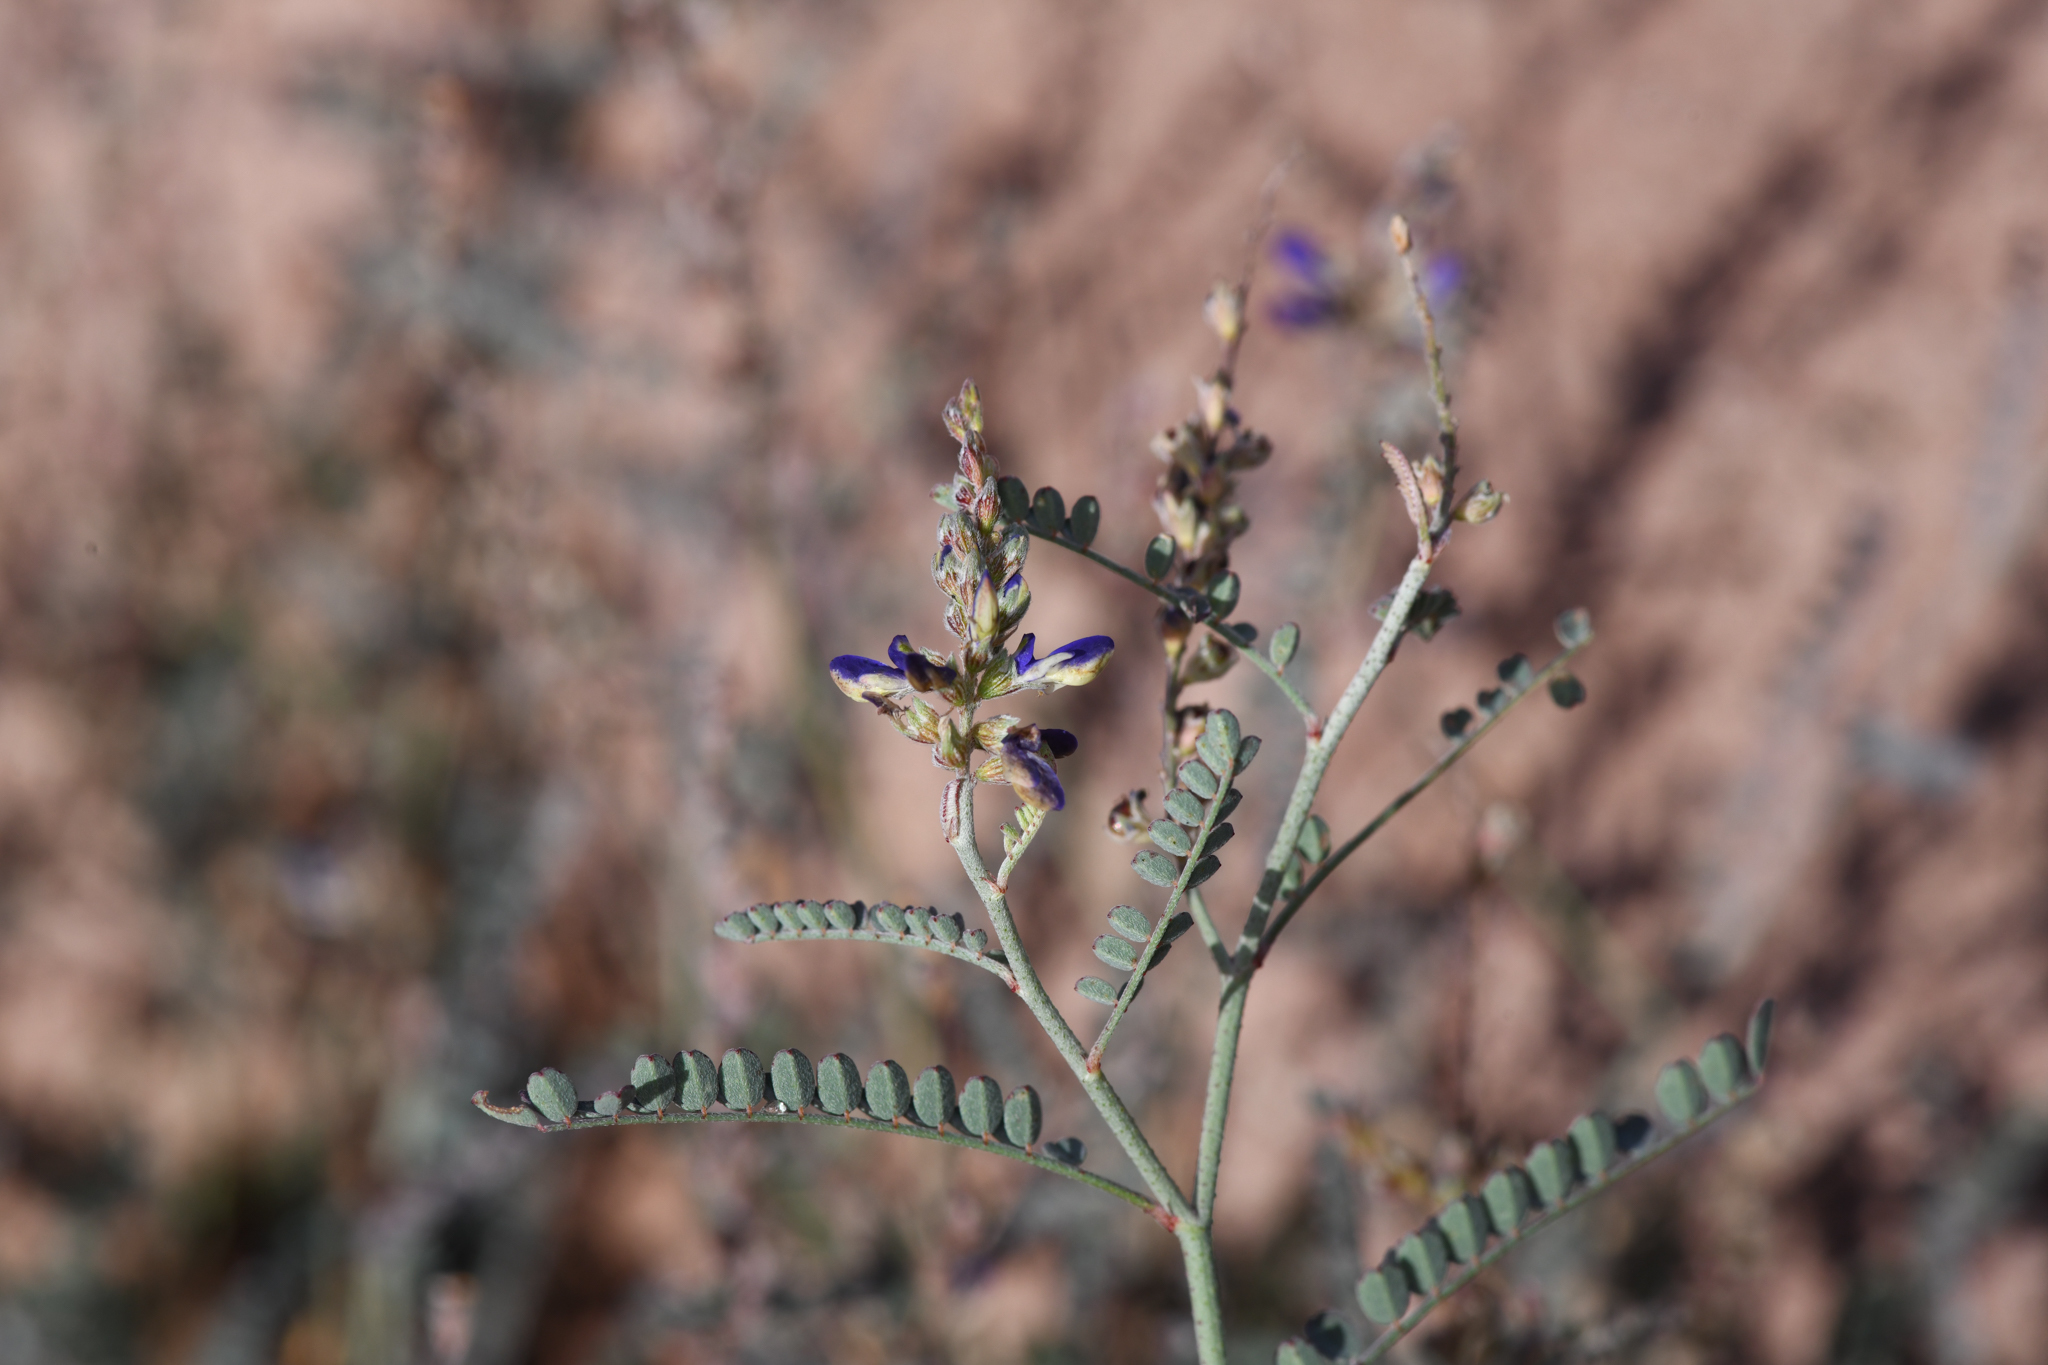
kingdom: Plantae
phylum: Tracheophyta
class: Magnoliopsida
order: Fabales
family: Fabaceae
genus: Marina
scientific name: Marina parryi
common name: Parry's marina
